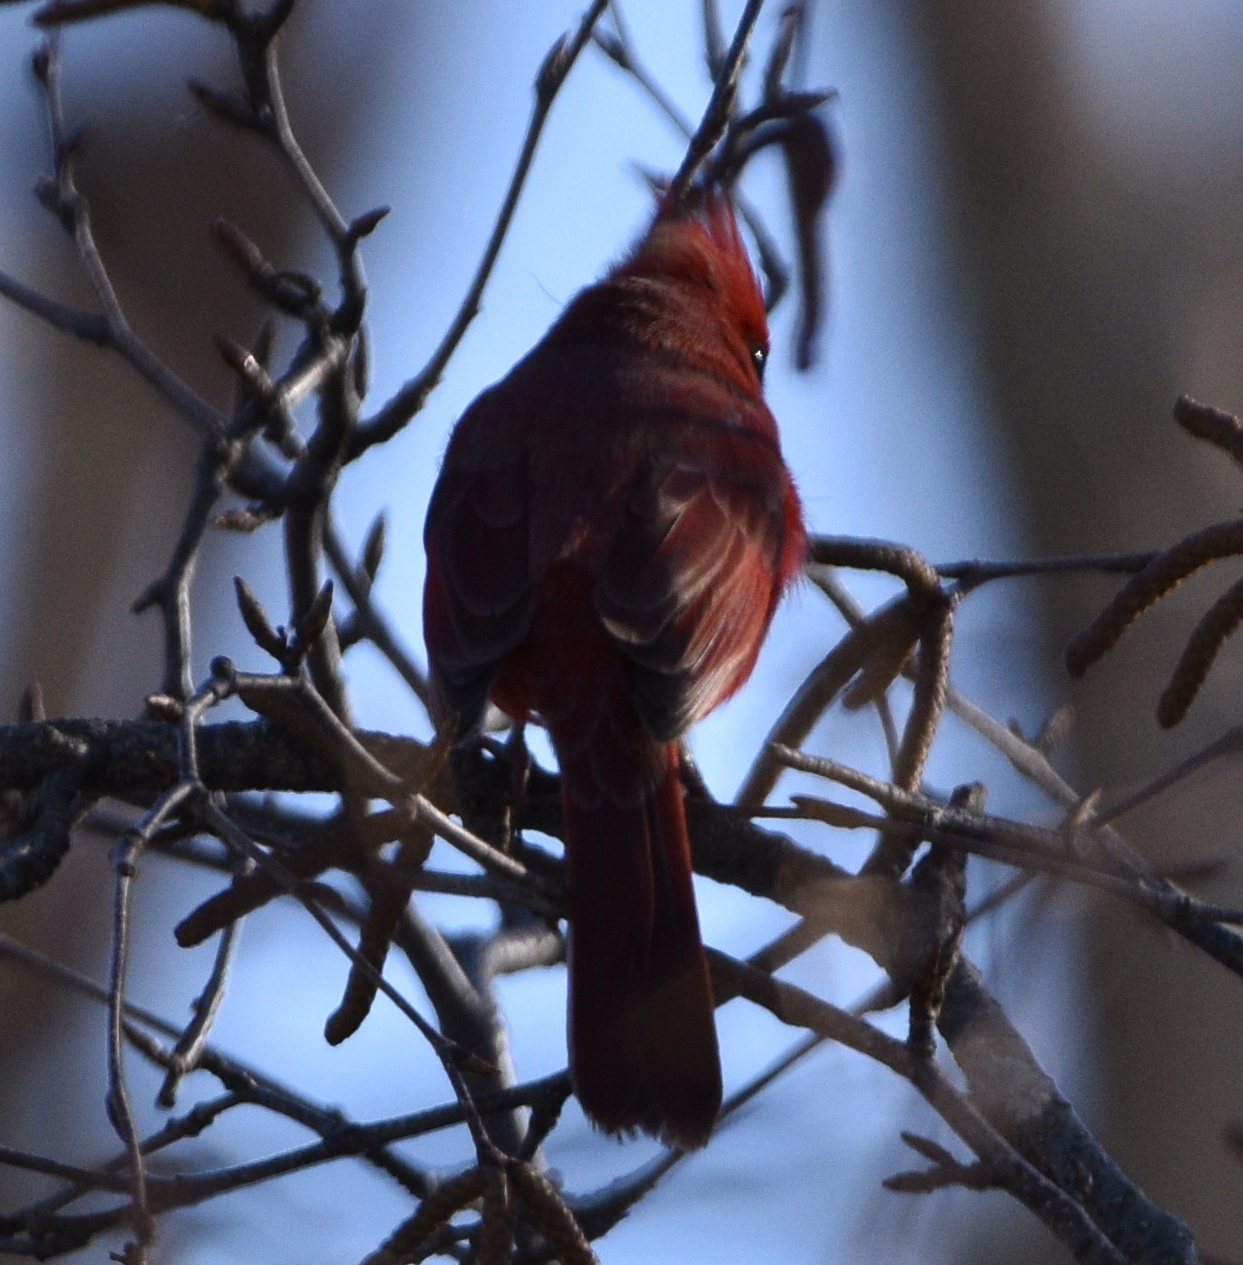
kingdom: Animalia
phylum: Chordata
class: Aves
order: Passeriformes
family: Cardinalidae
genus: Cardinalis
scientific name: Cardinalis cardinalis
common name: Northern cardinal
